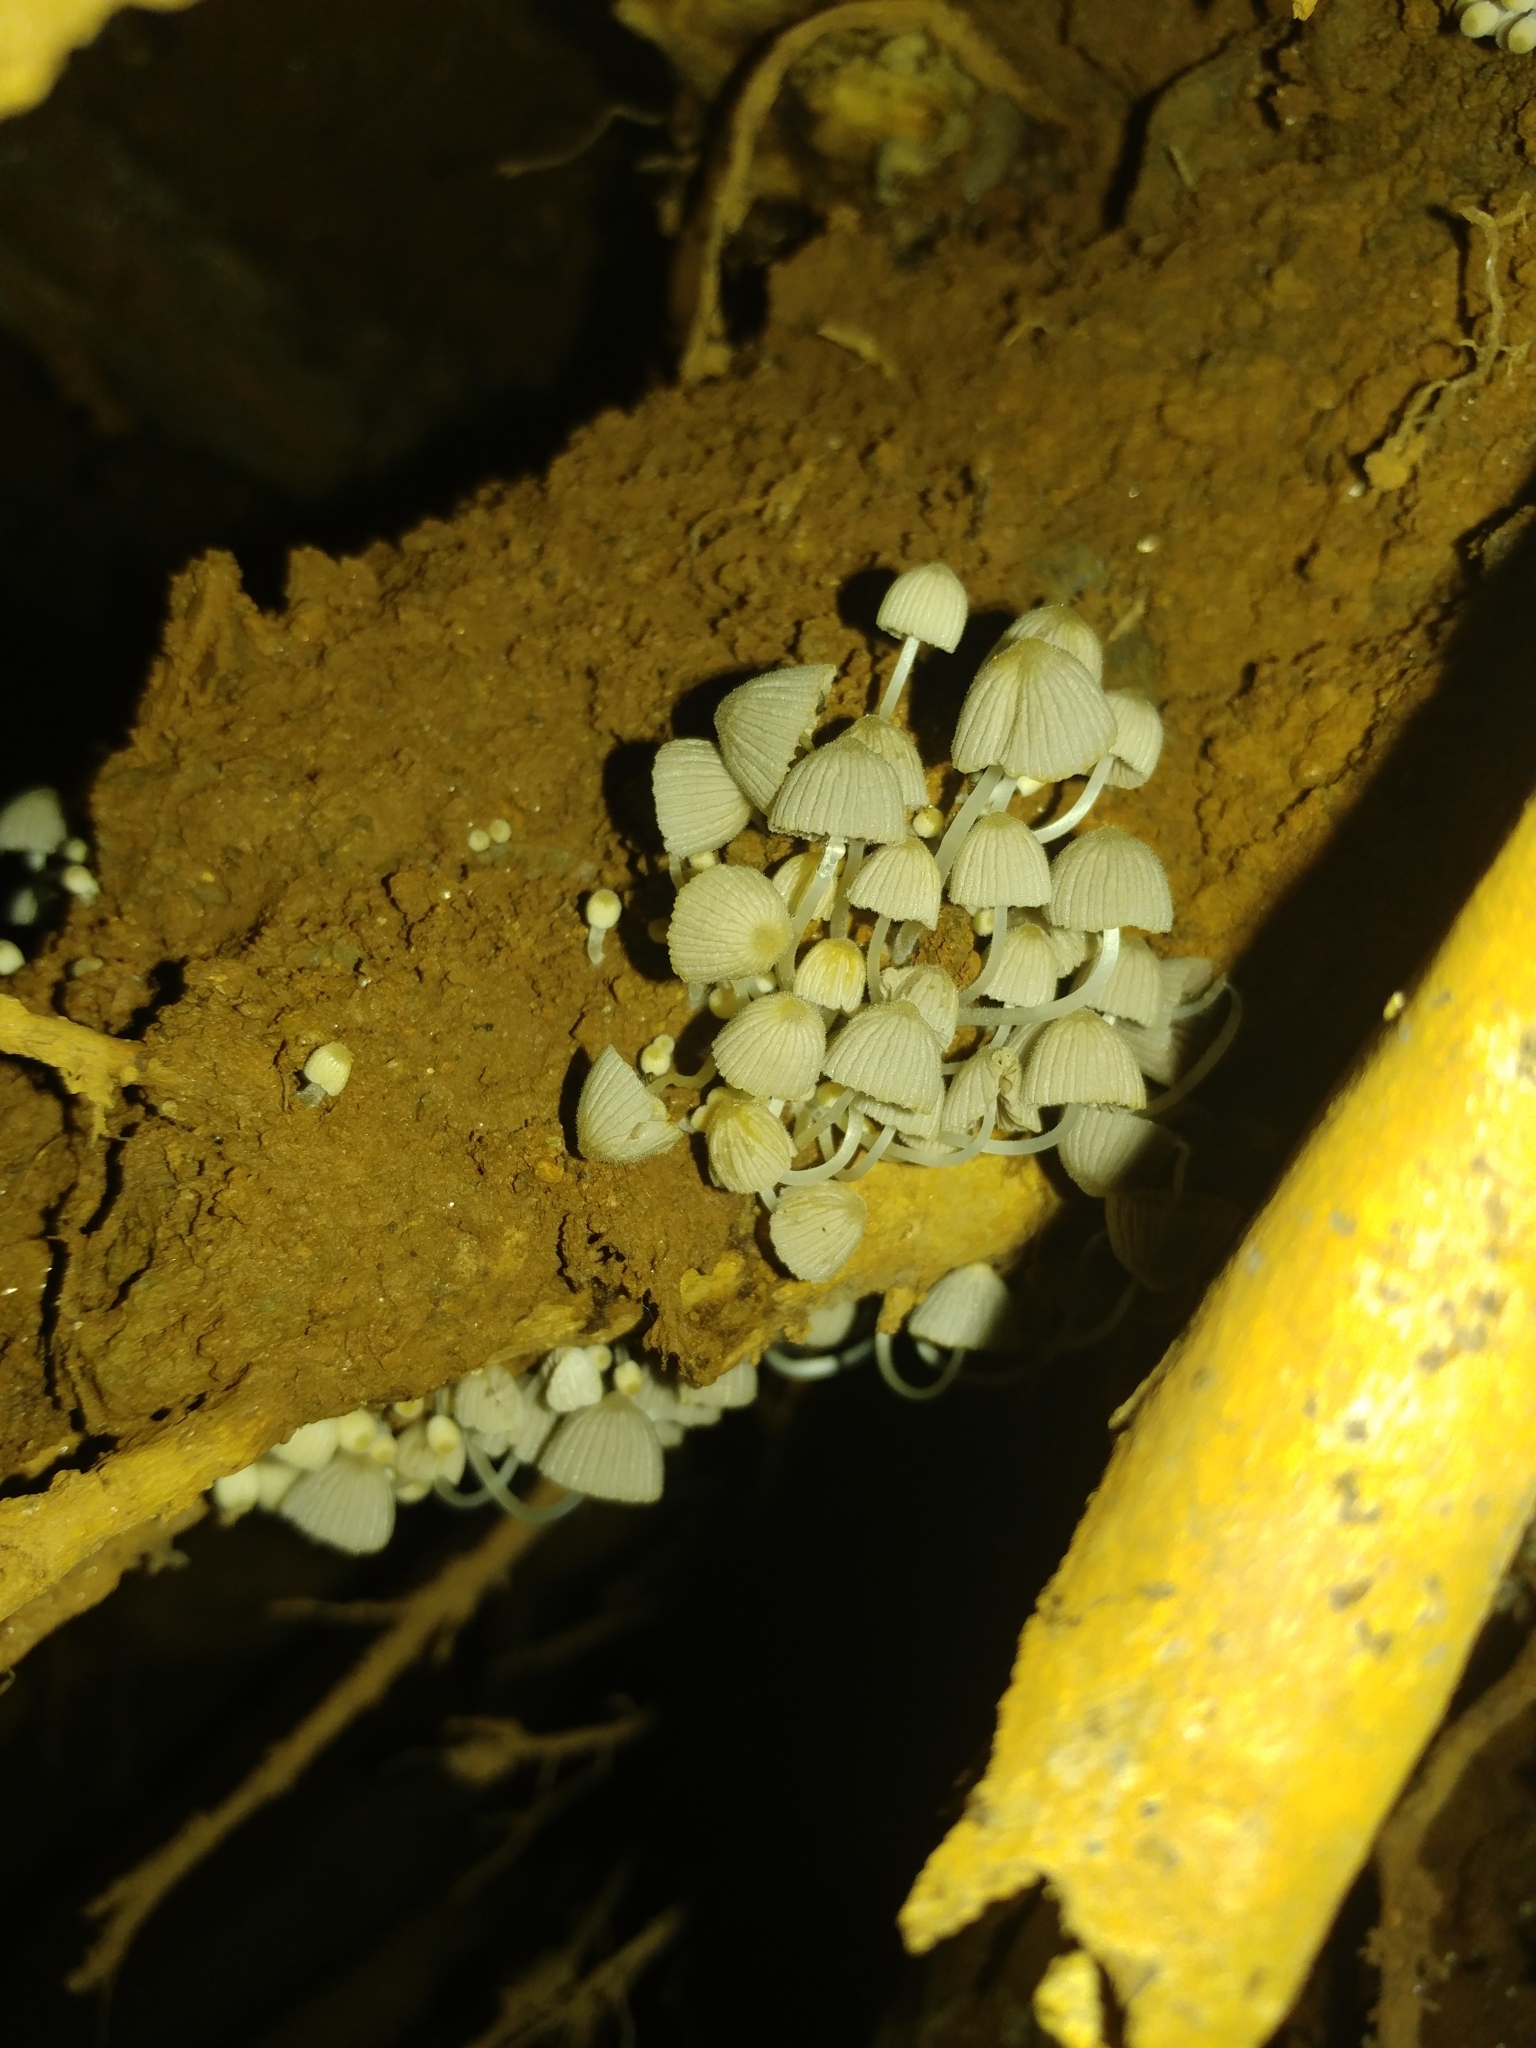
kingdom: Fungi
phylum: Basidiomycota
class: Agaricomycetes
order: Agaricales
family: Psathyrellaceae
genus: Coprinellus
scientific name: Coprinellus disseminatus
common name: Fairies' bonnets
